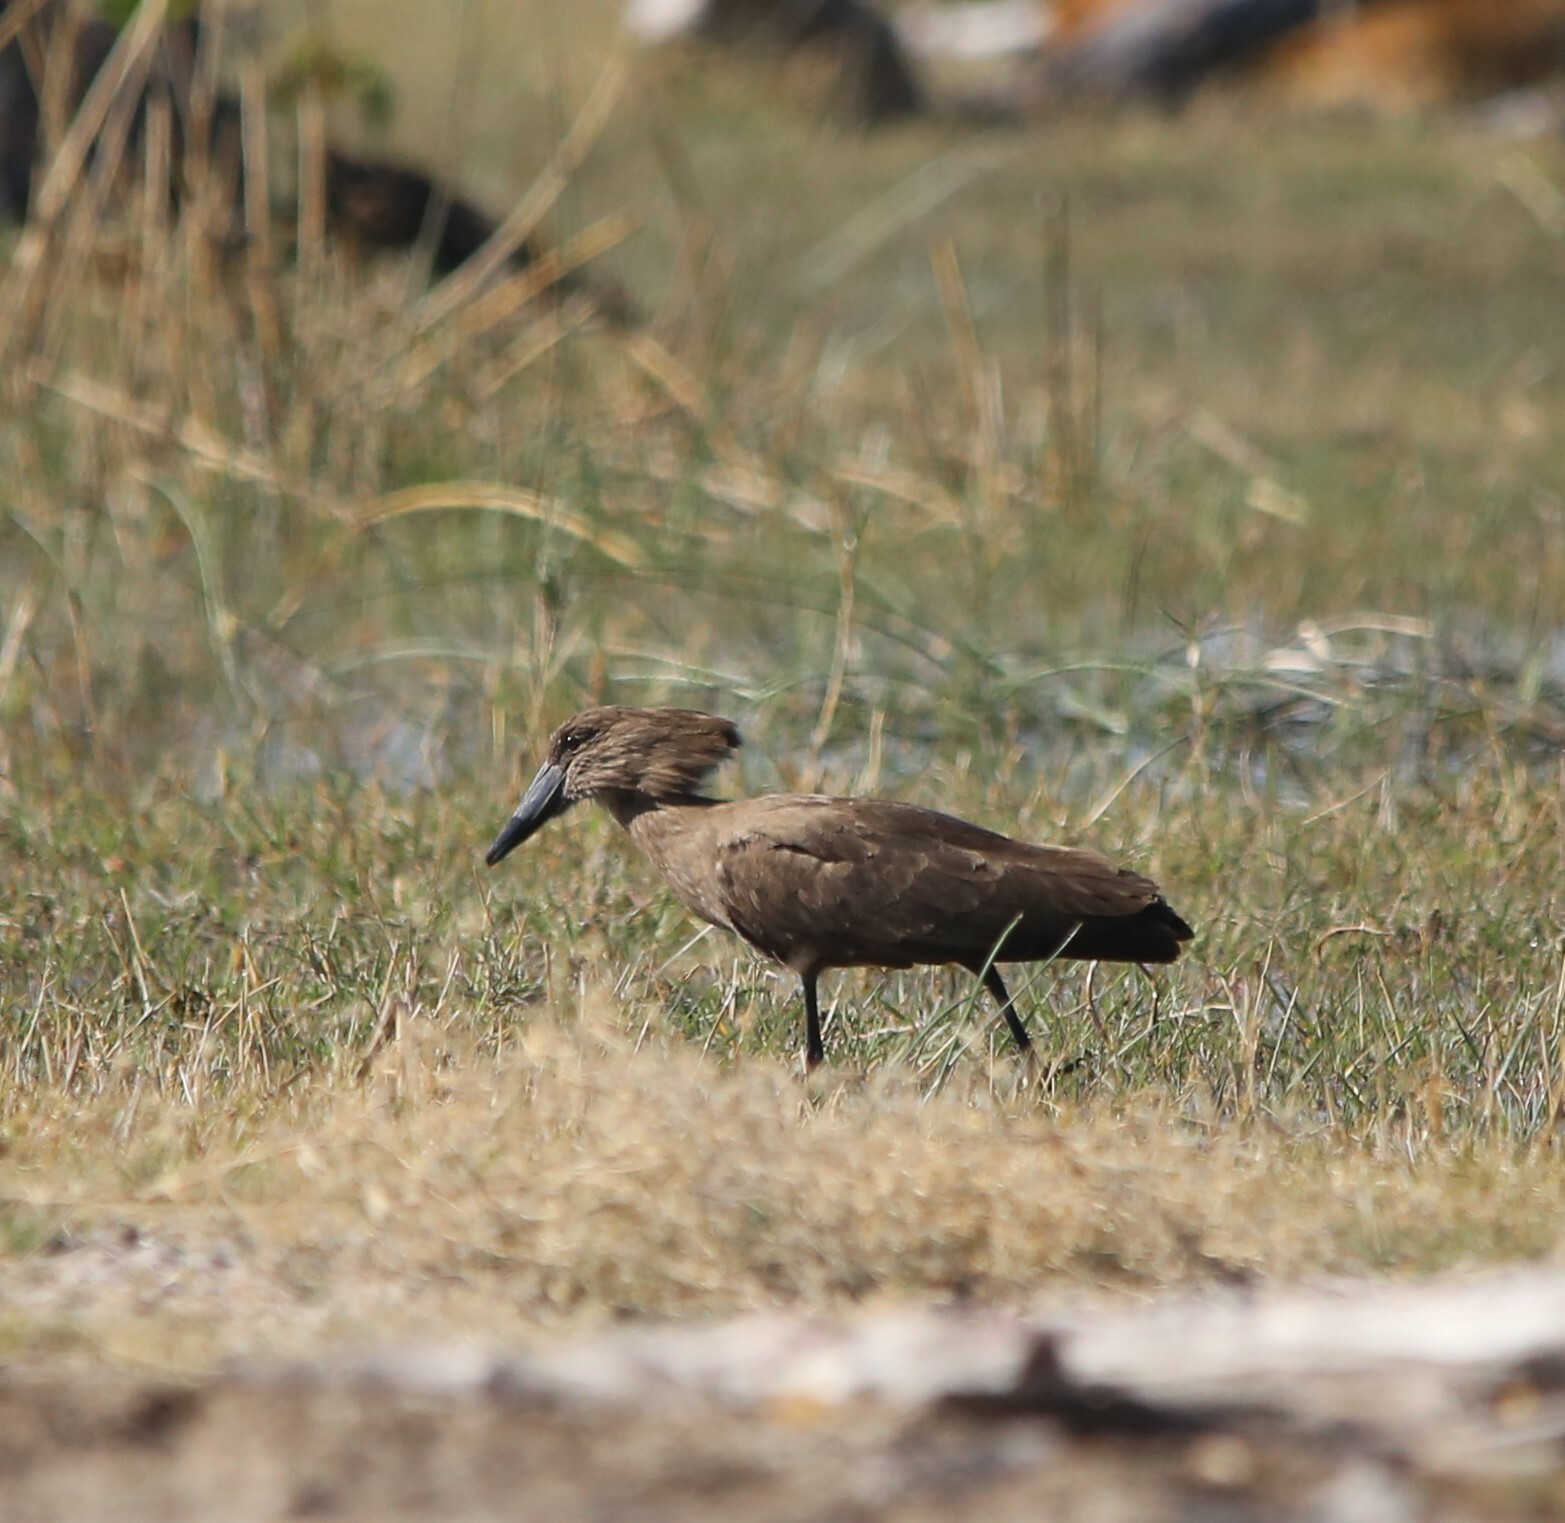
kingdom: Animalia
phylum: Chordata
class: Aves
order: Pelecaniformes
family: Scopidae
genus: Scopus
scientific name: Scopus umbretta
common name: Hamerkop
